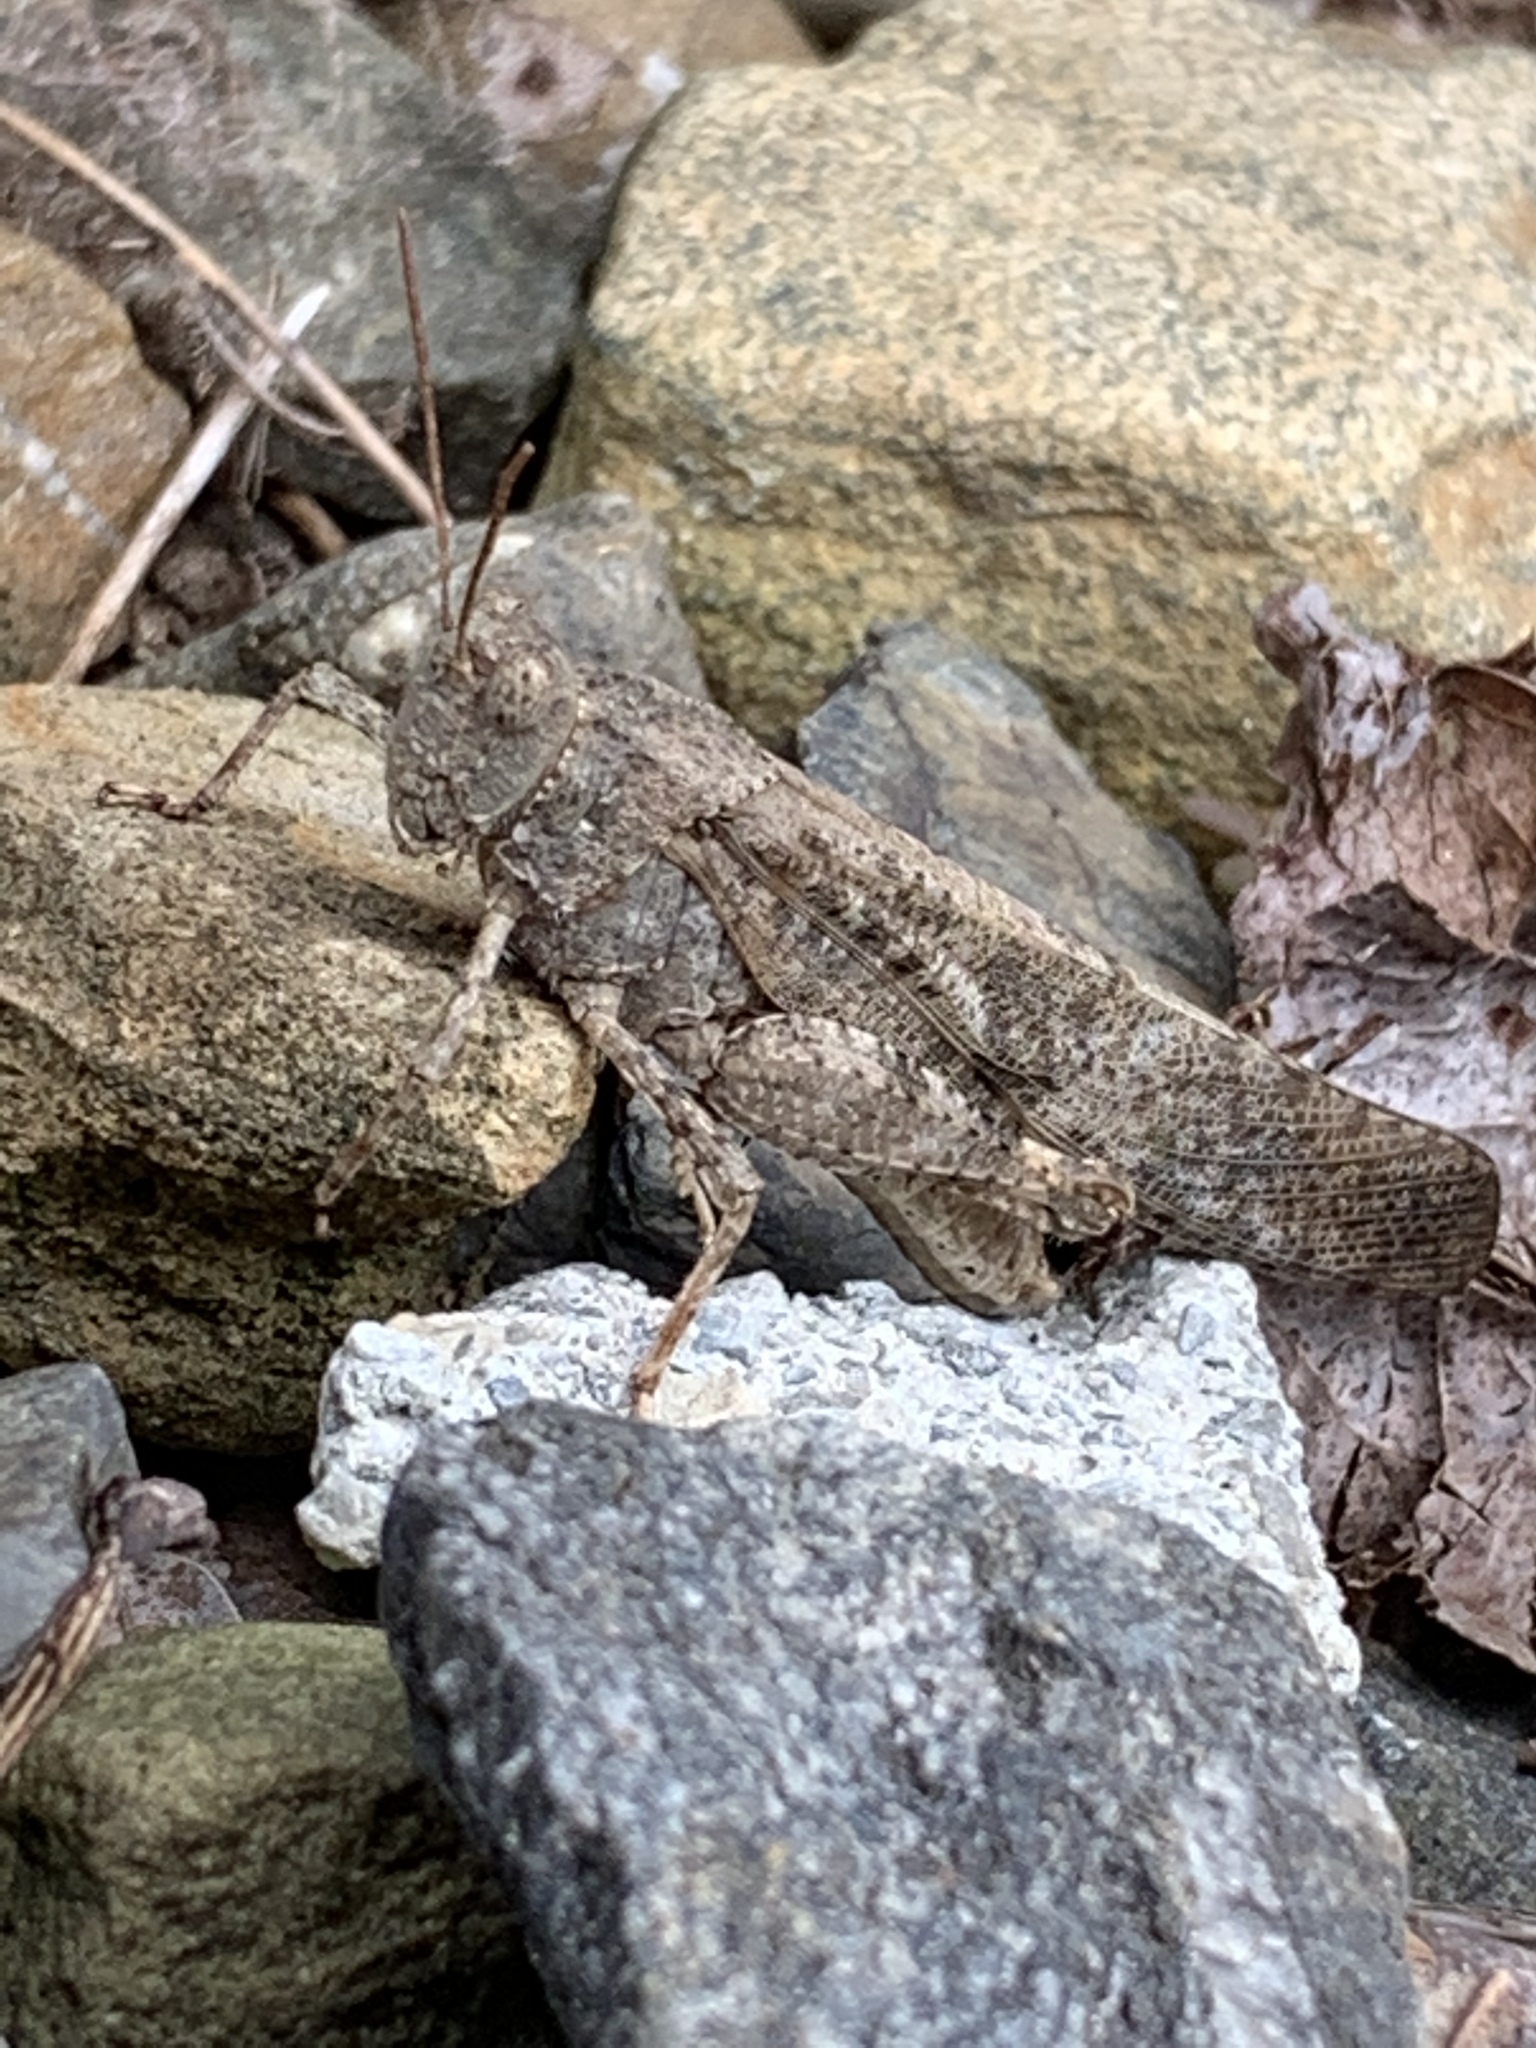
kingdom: Animalia
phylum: Arthropoda
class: Insecta
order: Orthoptera
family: Acrididae
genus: Dissosteira
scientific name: Dissosteira carolina
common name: Carolina grasshopper
